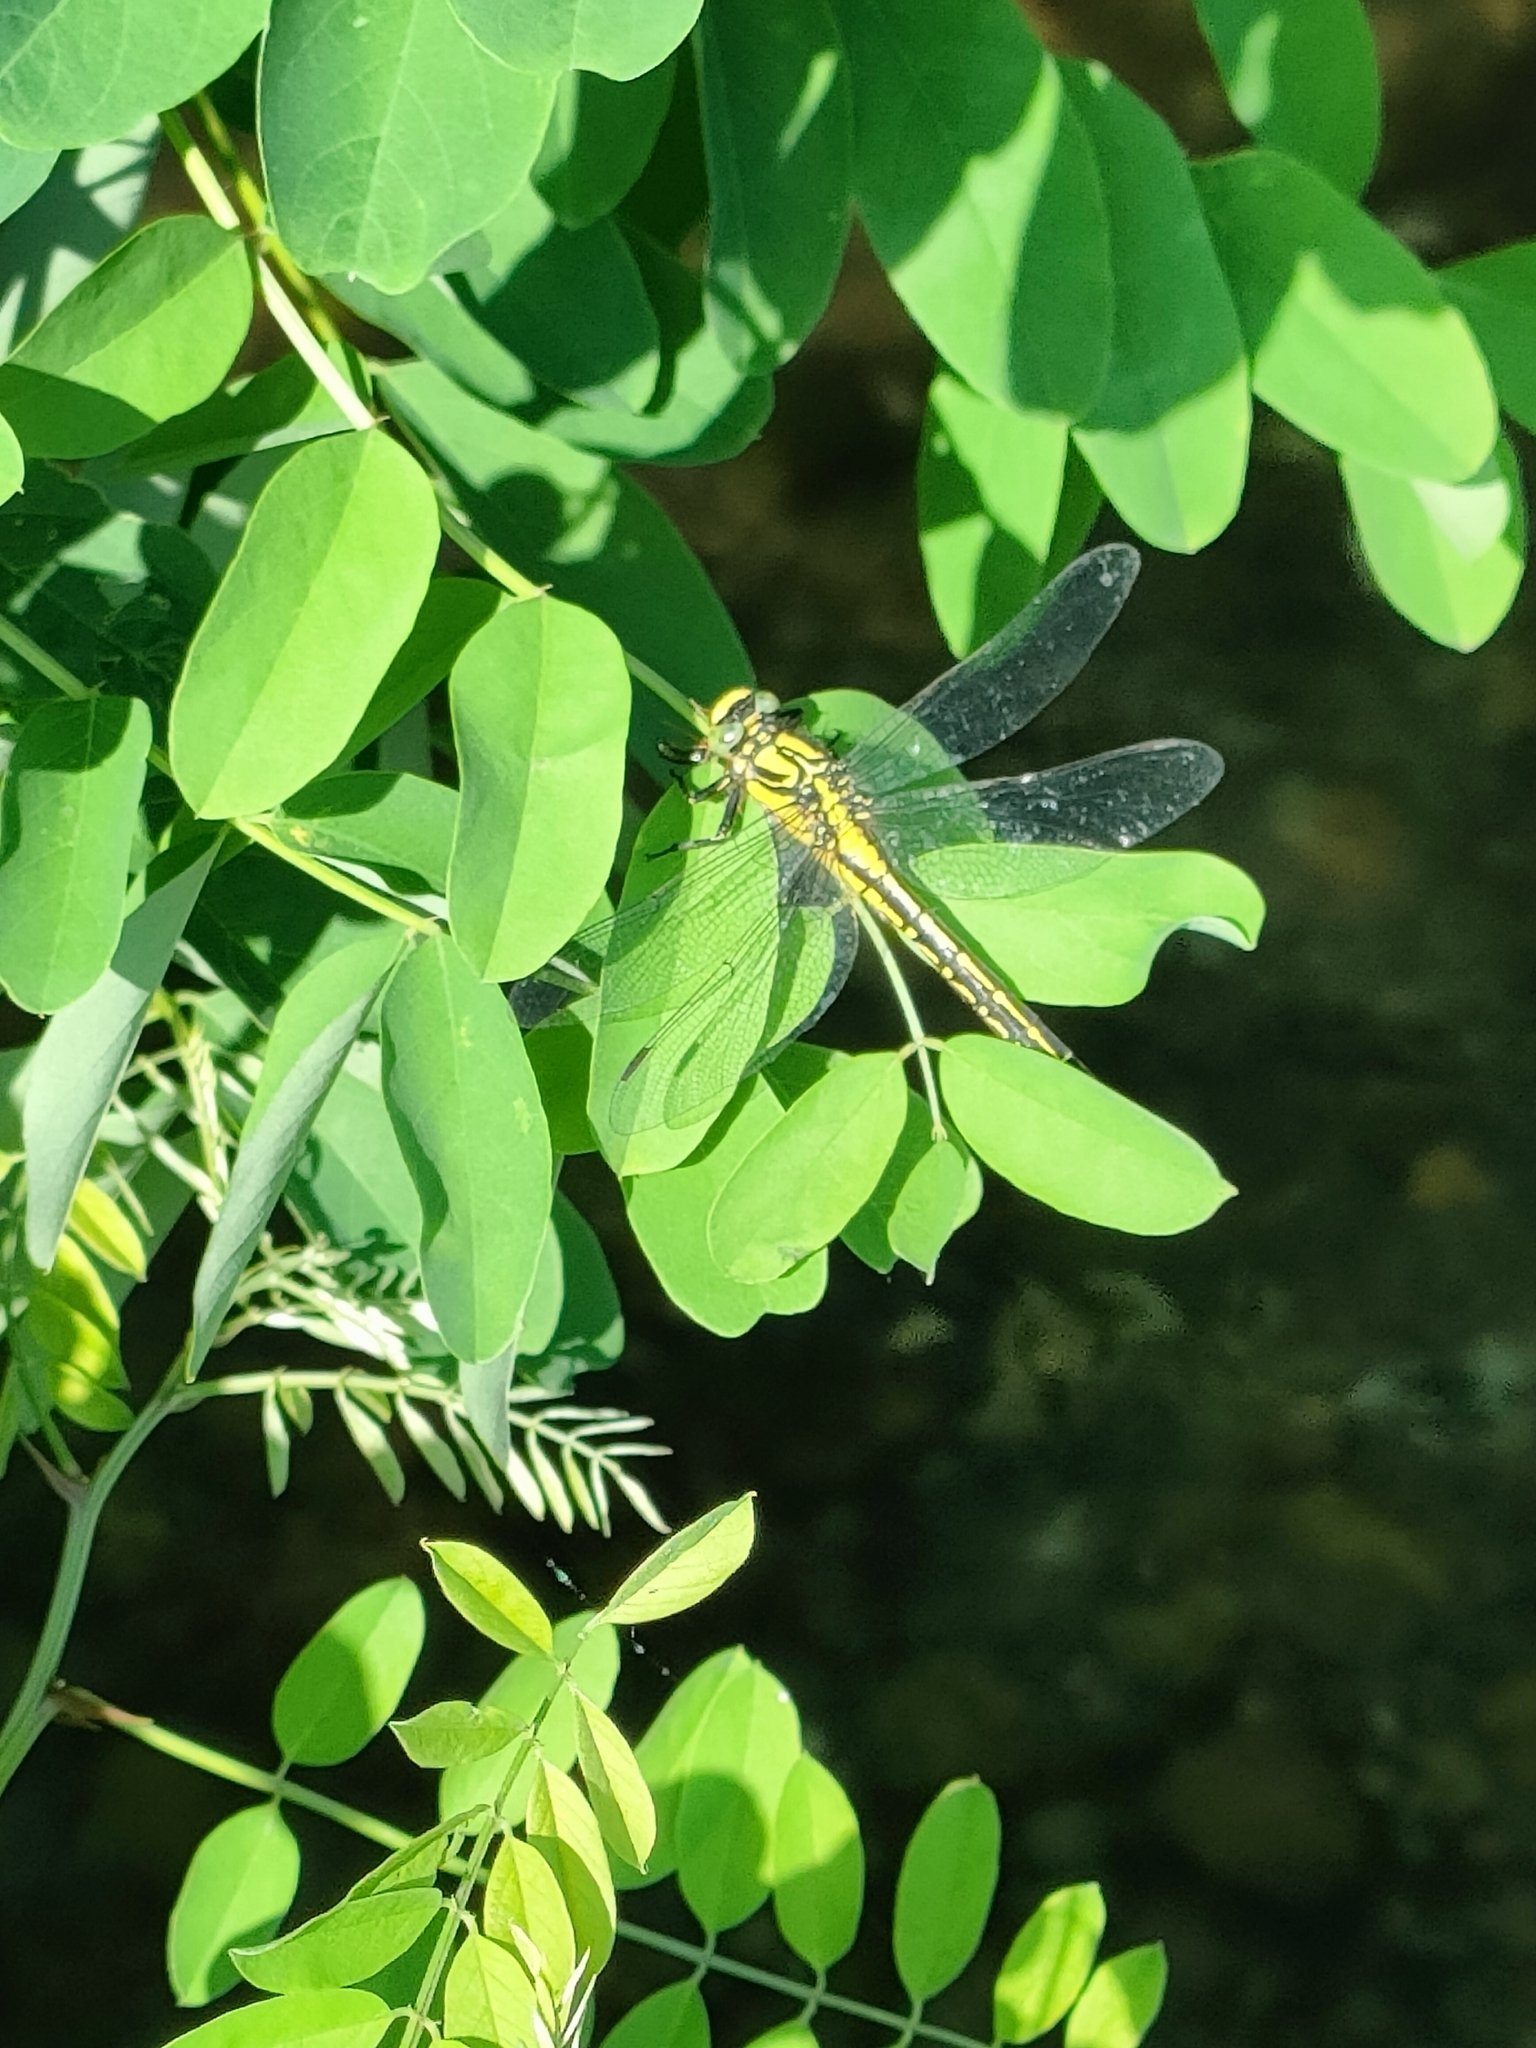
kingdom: Animalia
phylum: Arthropoda
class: Insecta
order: Odonata
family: Gomphidae
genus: Gomphus
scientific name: Gomphus vulgatissimus
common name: Club-tailed dragonfly
